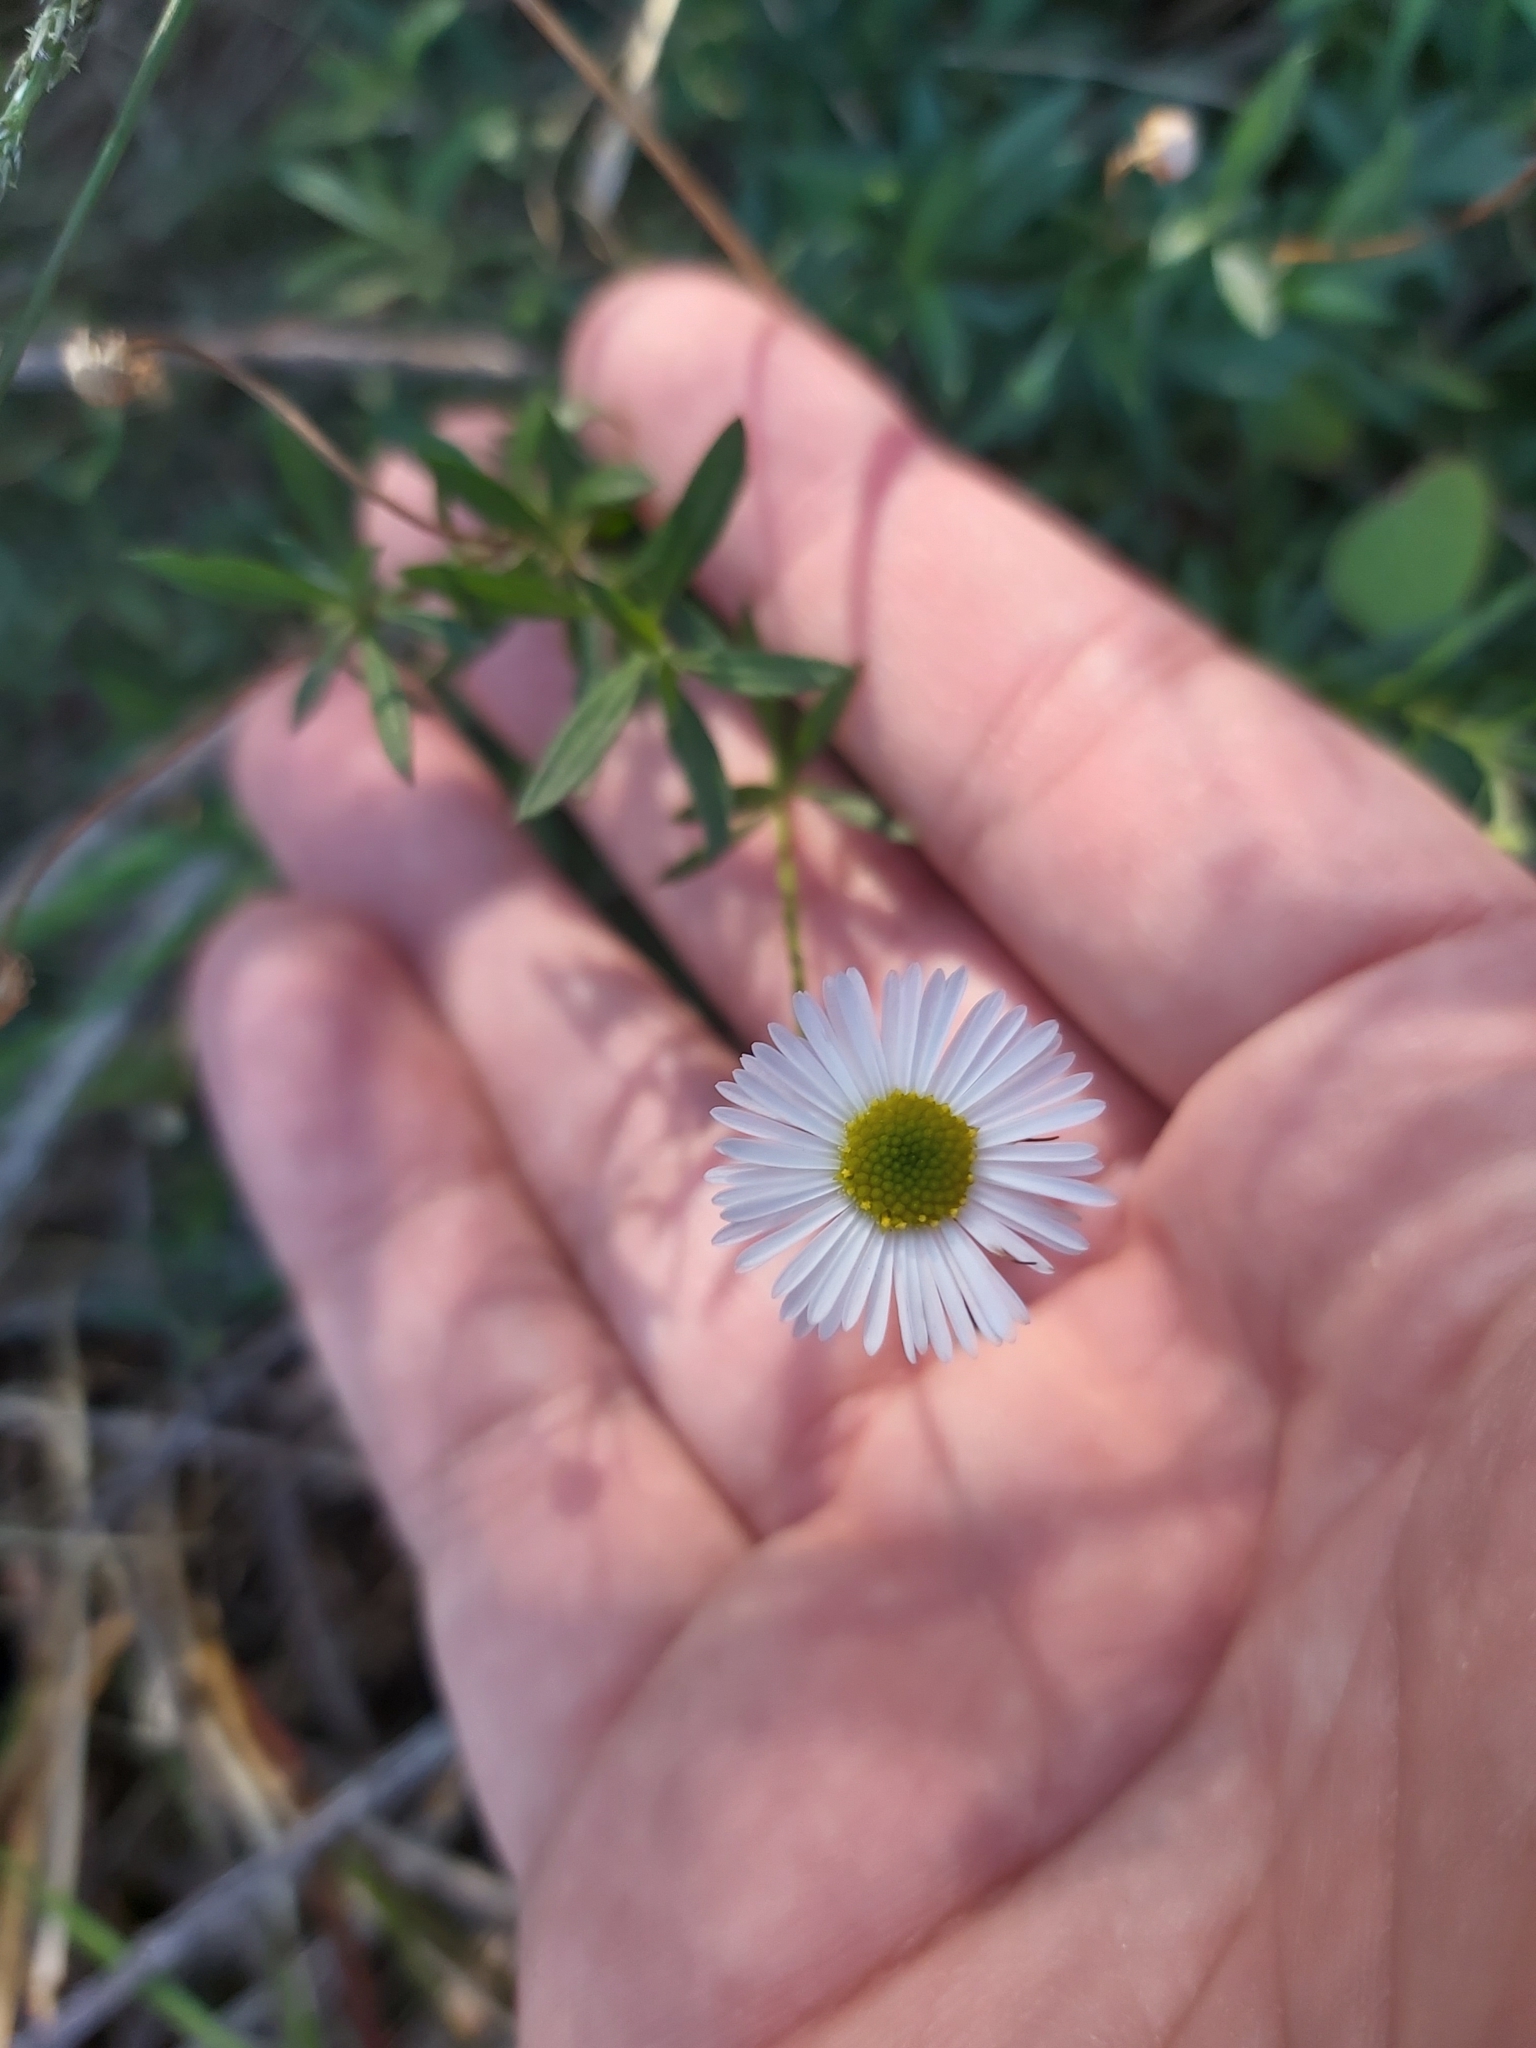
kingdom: Plantae
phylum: Tracheophyta
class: Magnoliopsida
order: Asterales
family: Asteraceae
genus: Erigeron
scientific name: Erigeron karvinskianus
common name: Mexican fleabane
